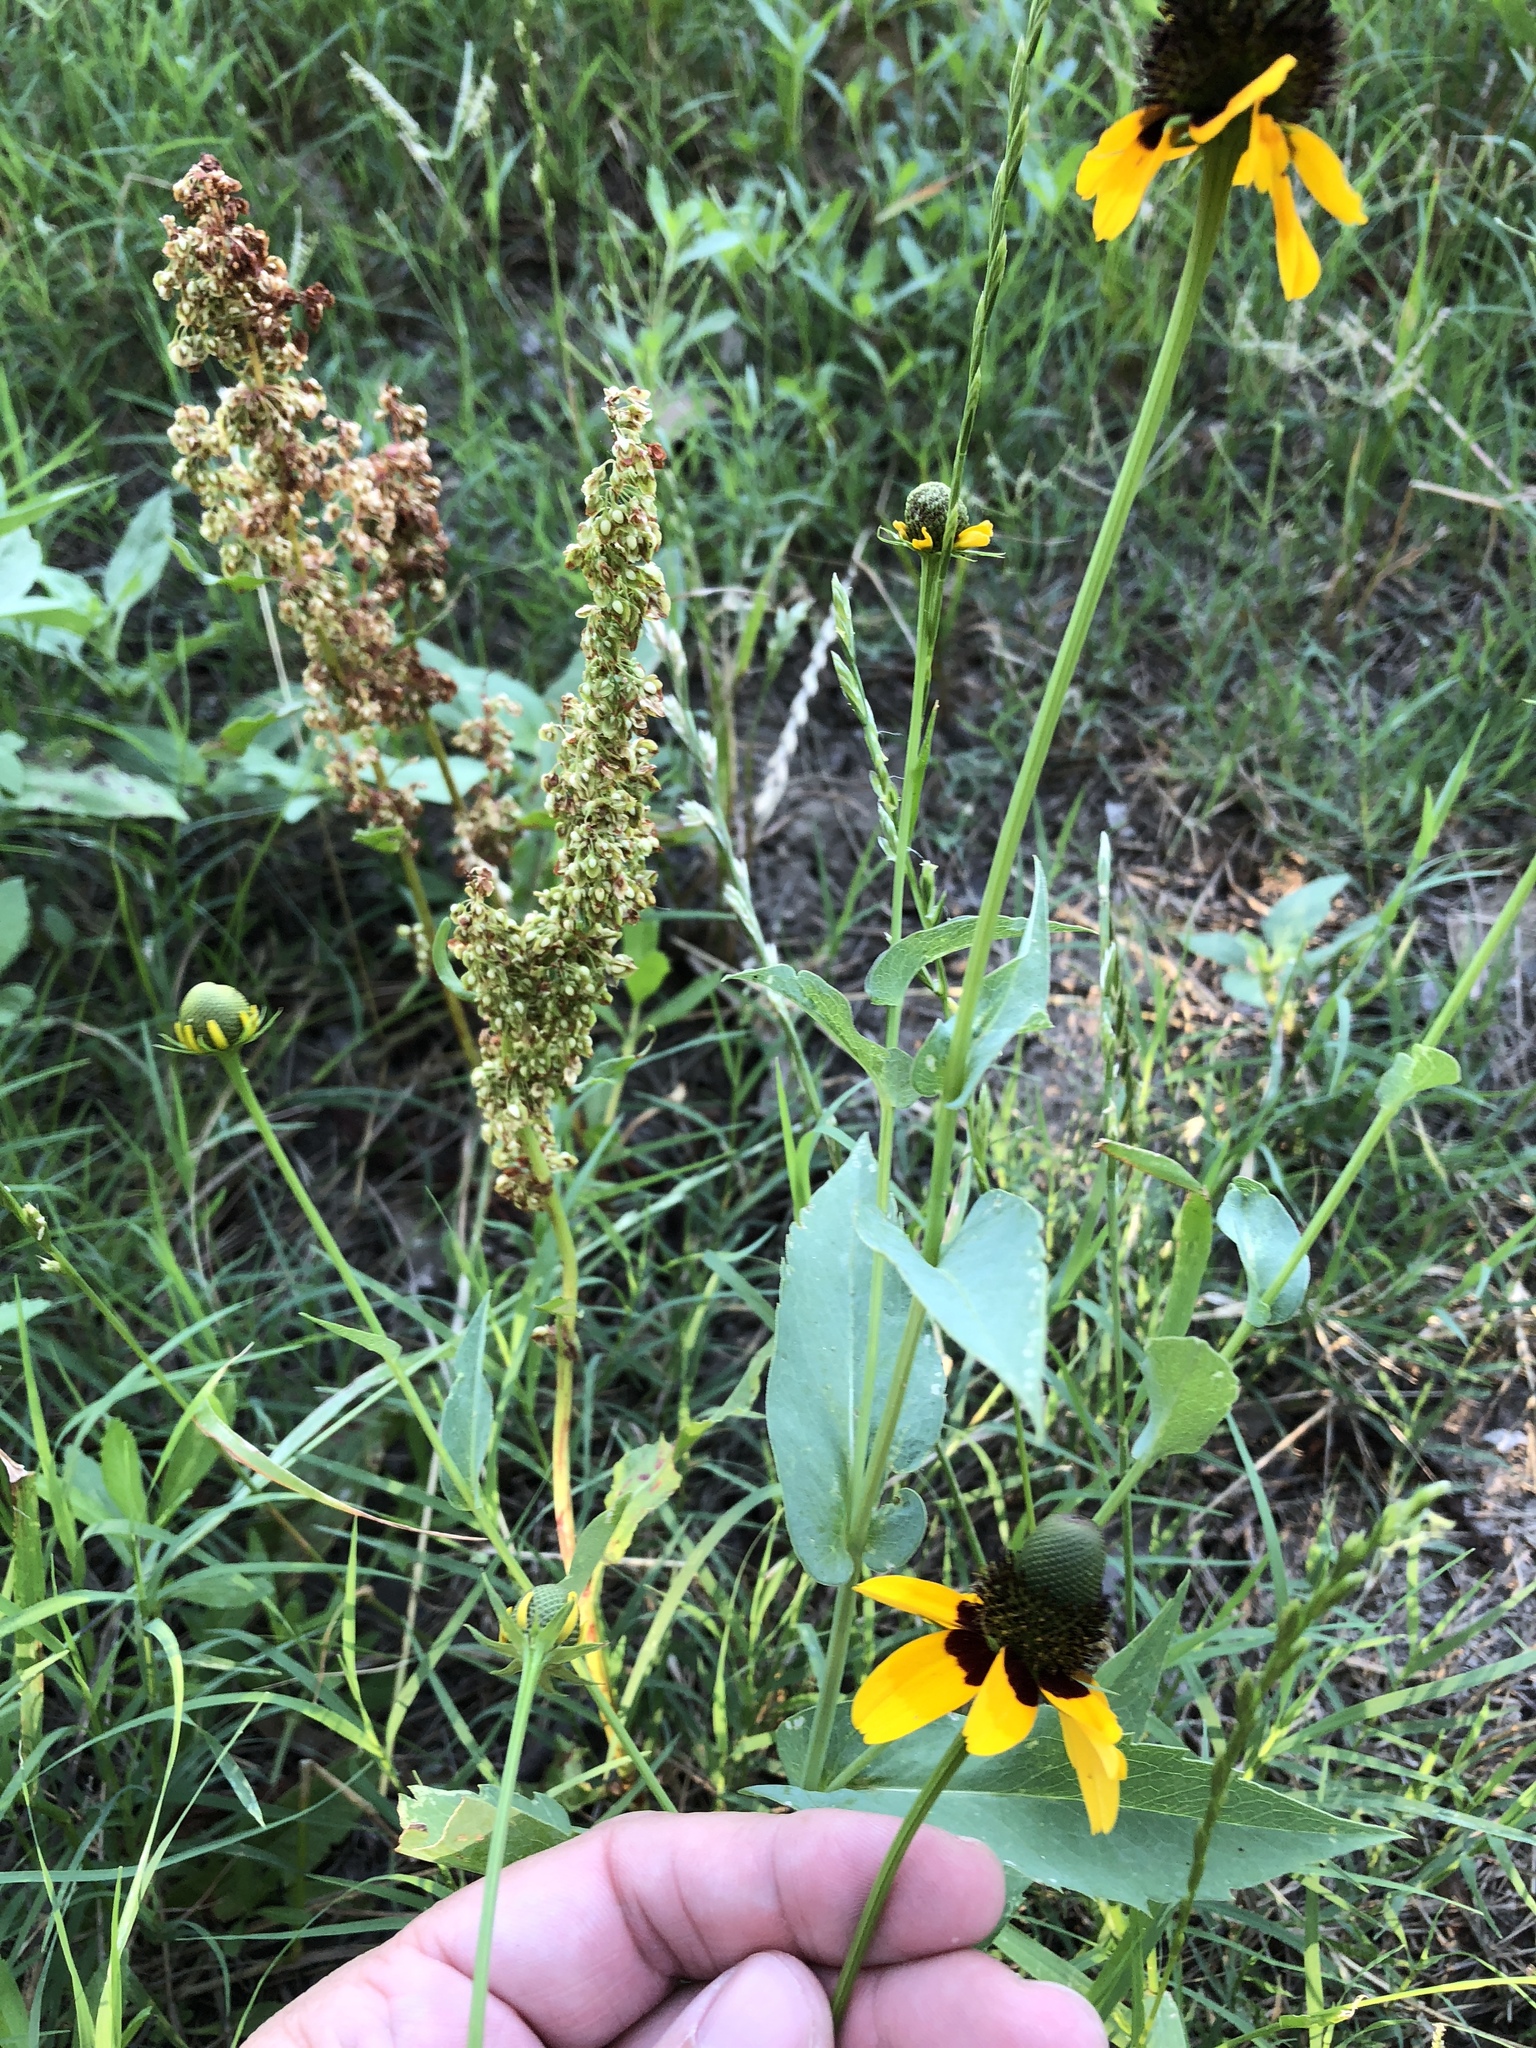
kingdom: Plantae
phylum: Tracheophyta
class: Magnoliopsida
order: Asterales
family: Asteraceae
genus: Rudbeckia
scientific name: Rudbeckia amplexicaulis
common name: Clasping-leaf coneflower
